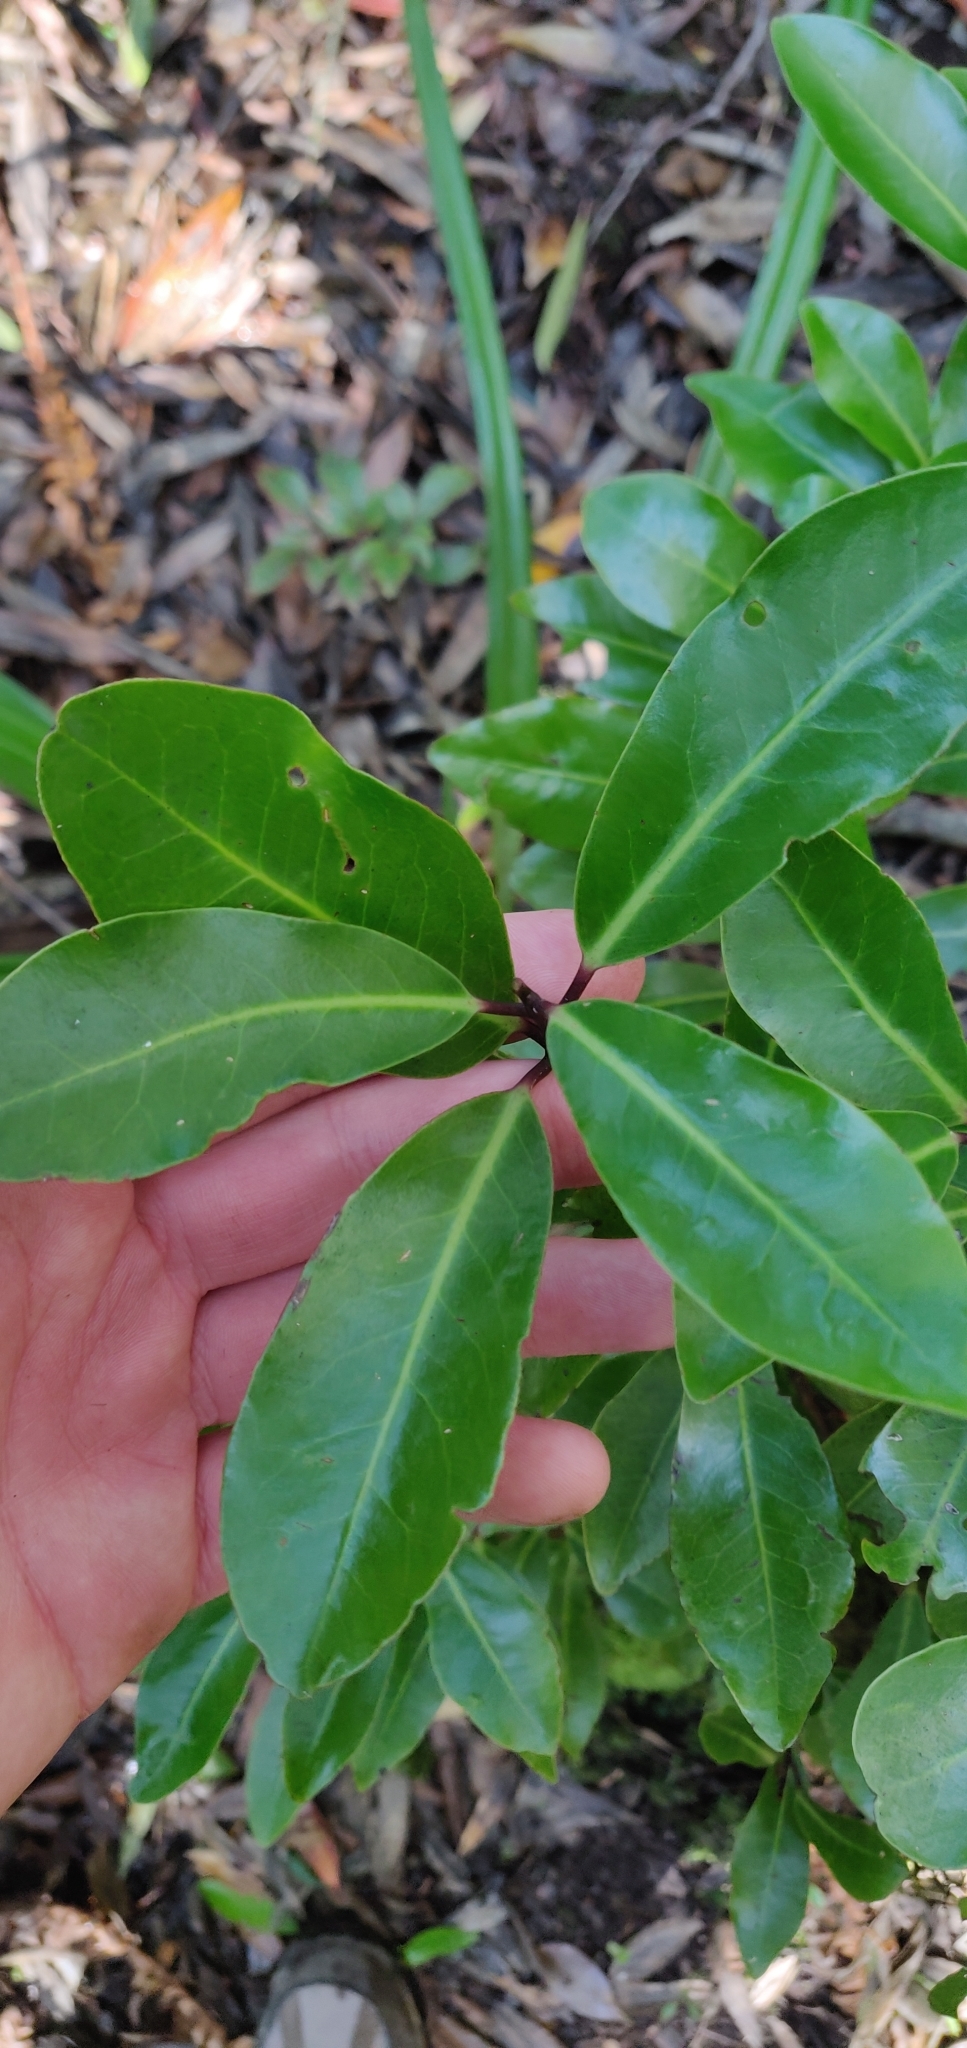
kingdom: Plantae
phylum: Tracheophyta
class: Magnoliopsida
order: Canellales
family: Winteraceae
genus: Pseudowintera
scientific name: Pseudowintera axillaris
